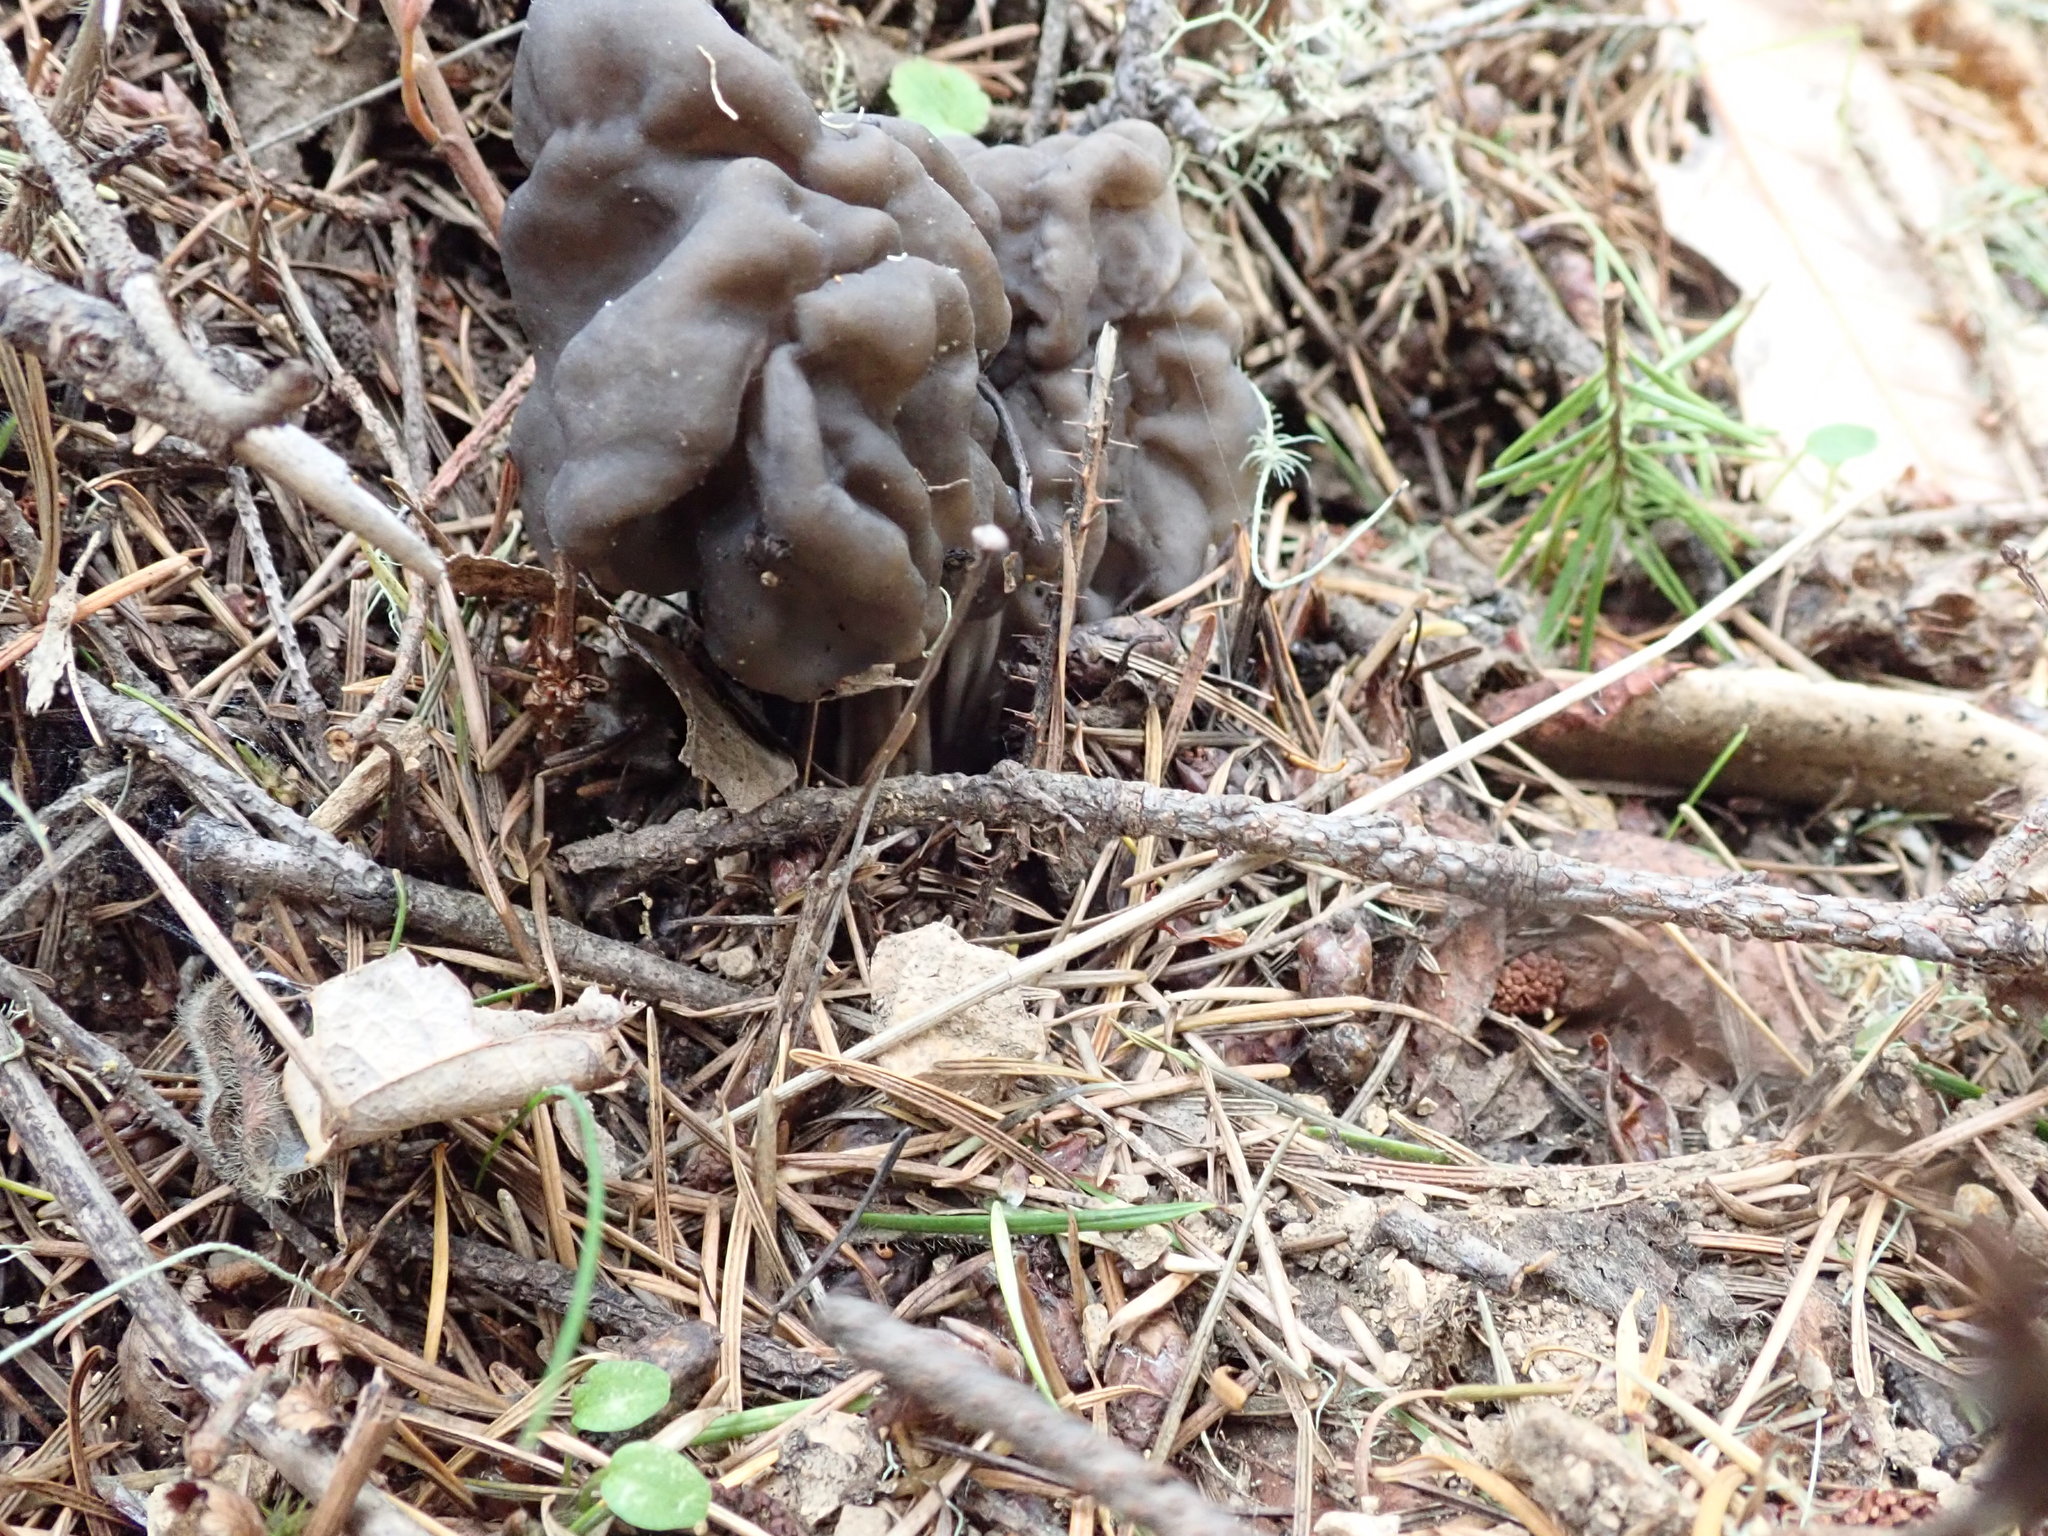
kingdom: Fungi
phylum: Ascomycota
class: Pezizomycetes
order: Pezizales
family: Helvellaceae
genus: Helvella
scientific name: Helvella vespertina
